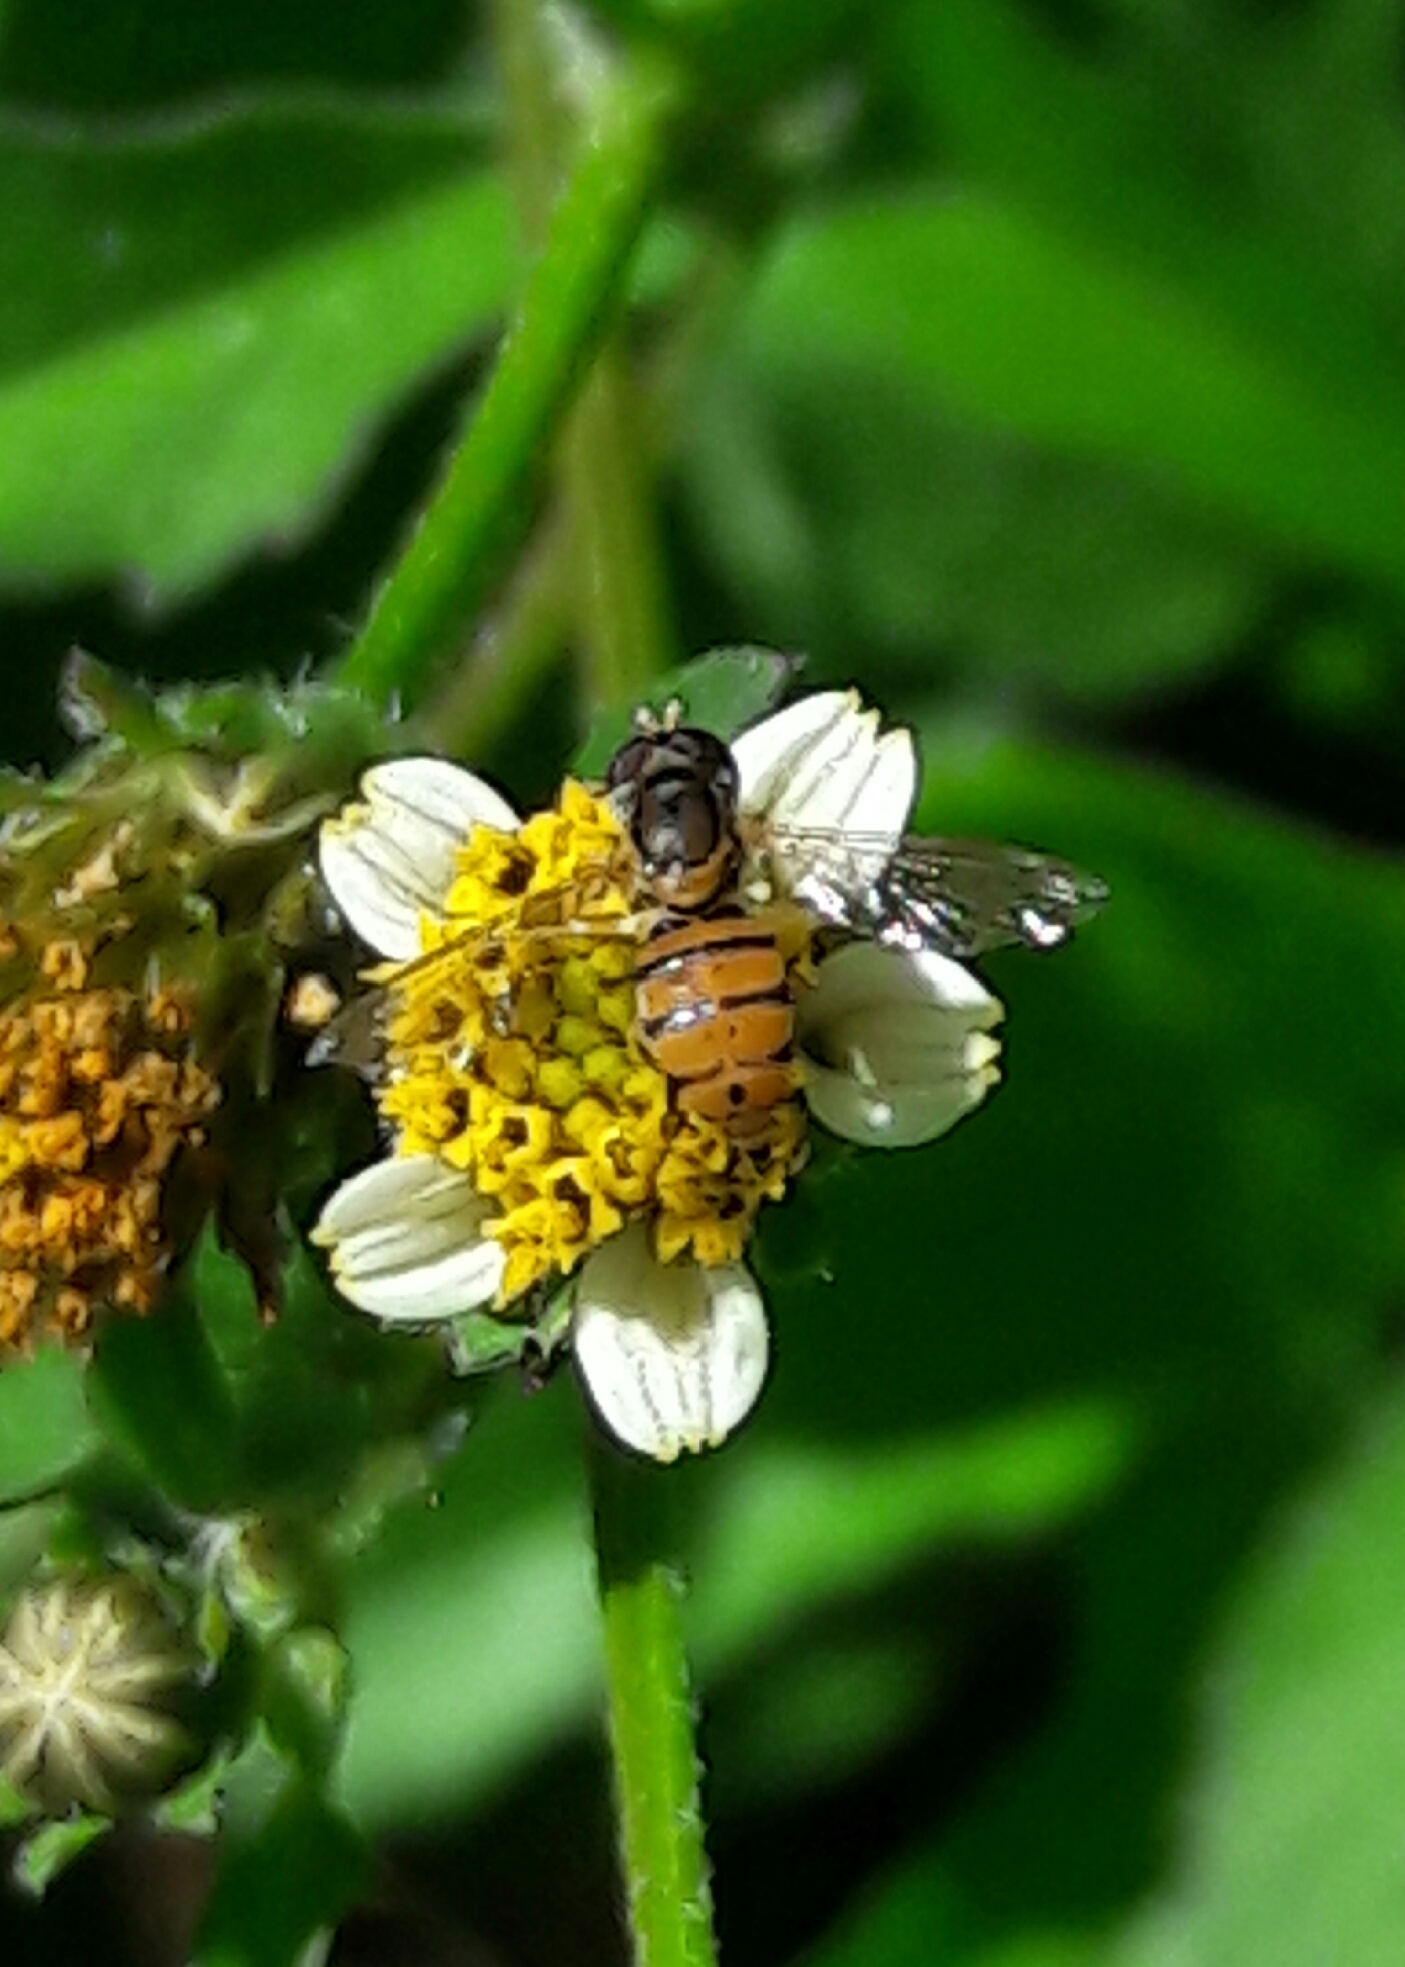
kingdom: Animalia
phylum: Arthropoda
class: Insecta
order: Diptera
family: Syrphidae
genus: Toxomerus
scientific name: Toxomerus
